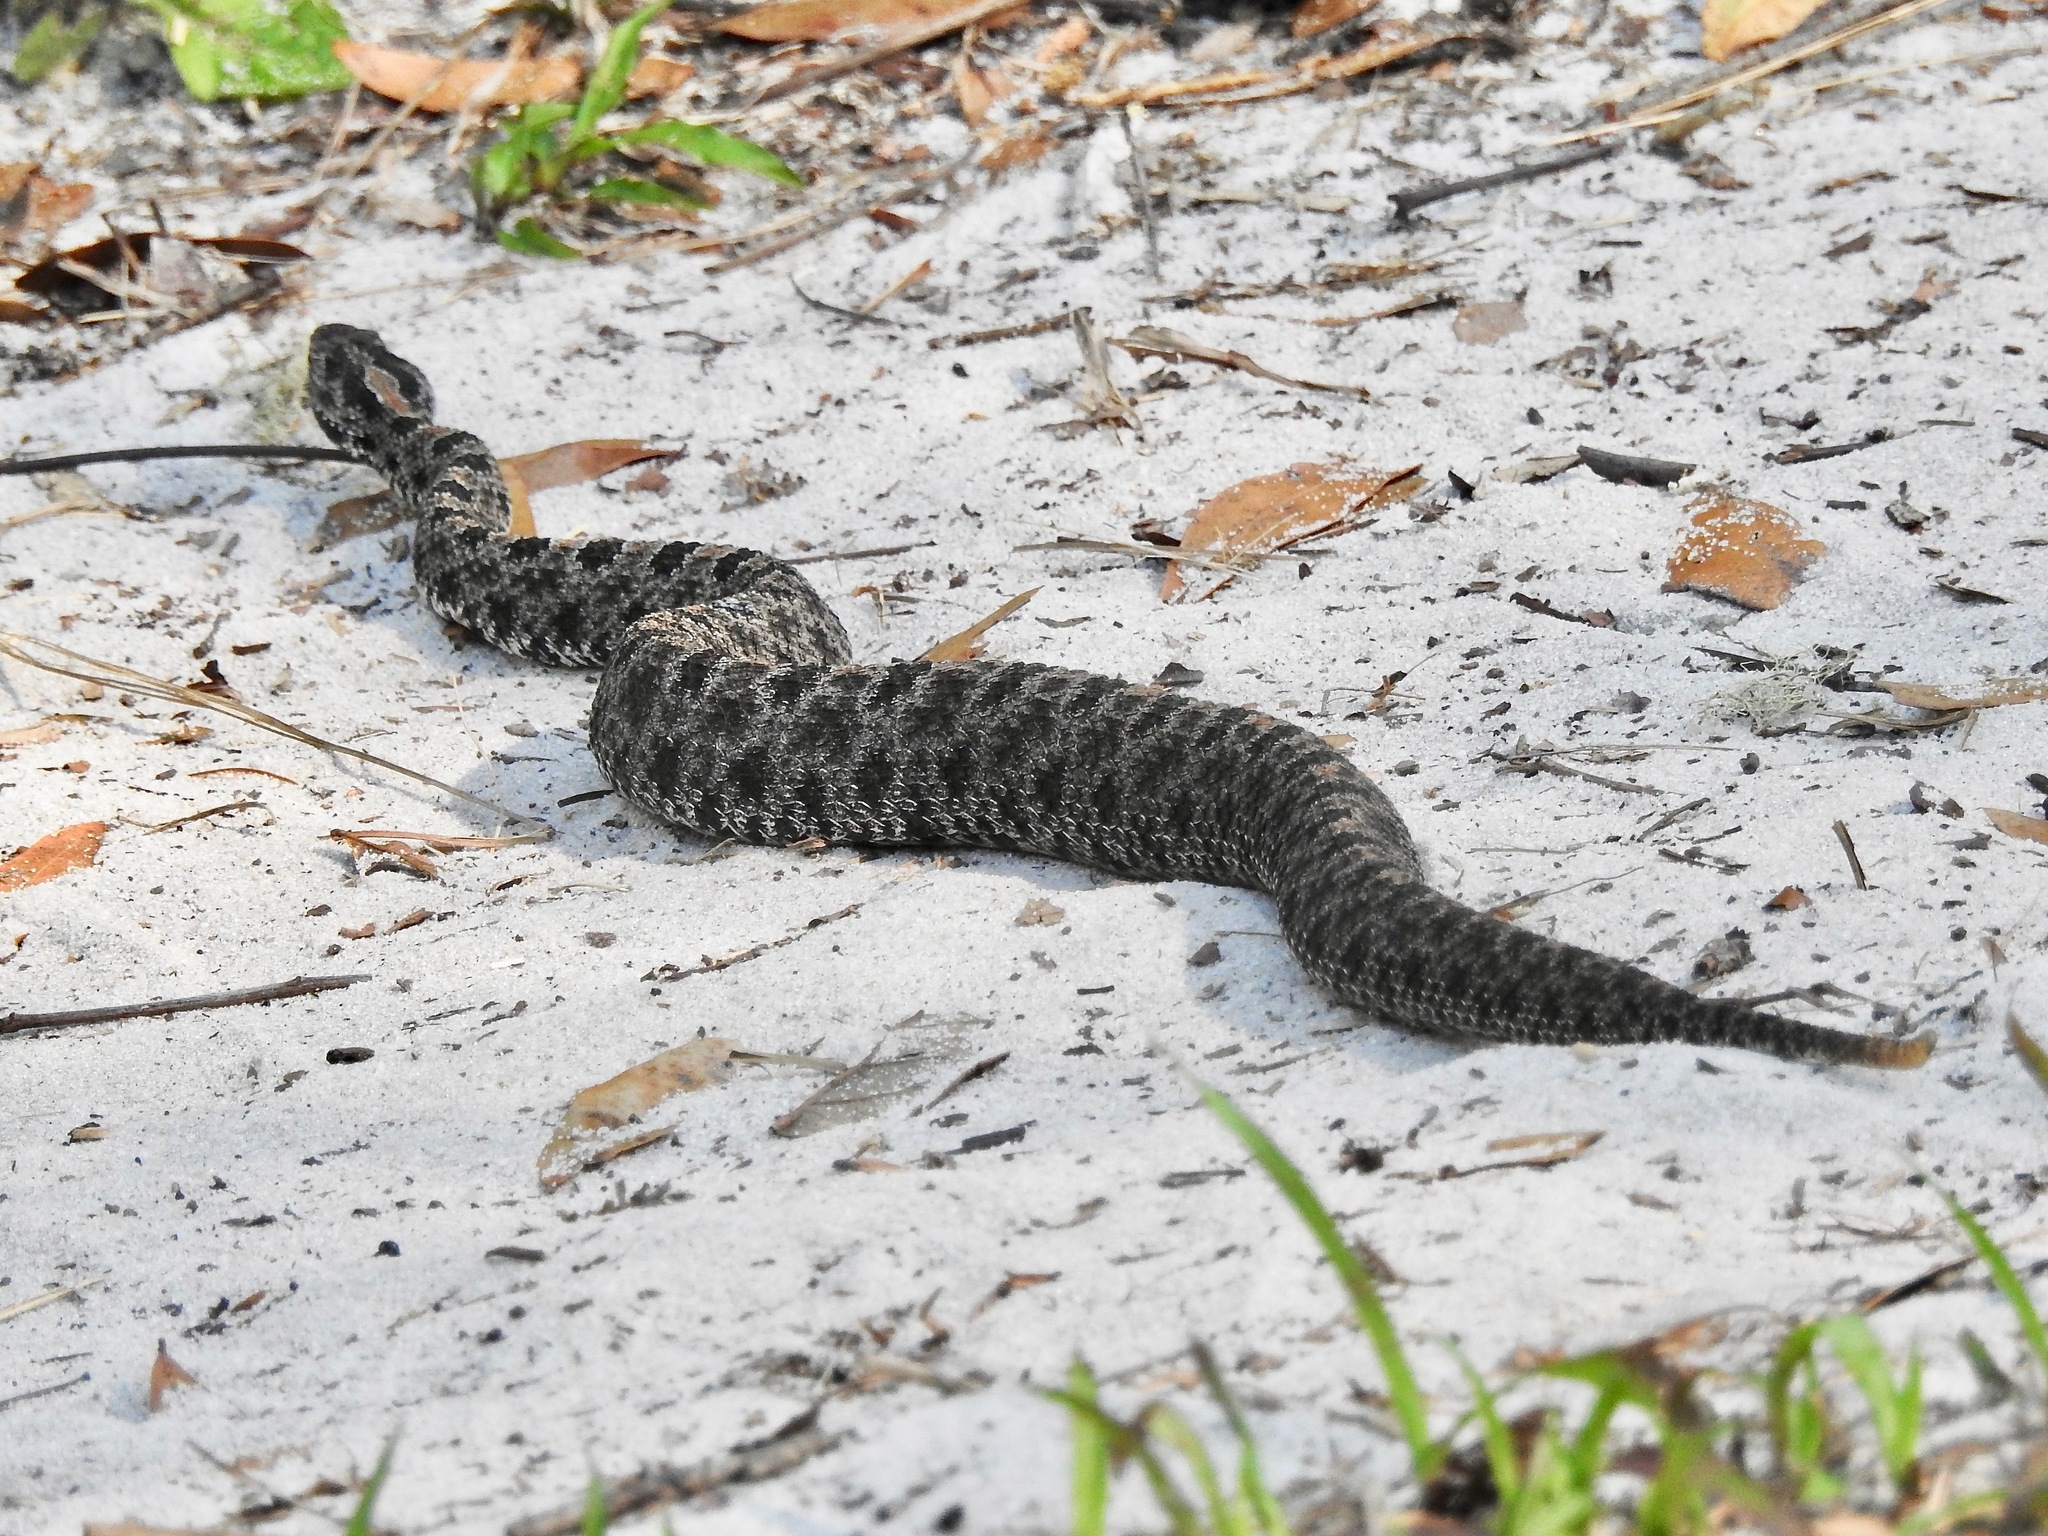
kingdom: Animalia
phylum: Chordata
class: Squamata
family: Viperidae
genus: Sistrurus
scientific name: Sistrurus miliarius
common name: Pygmy rattlesnake
